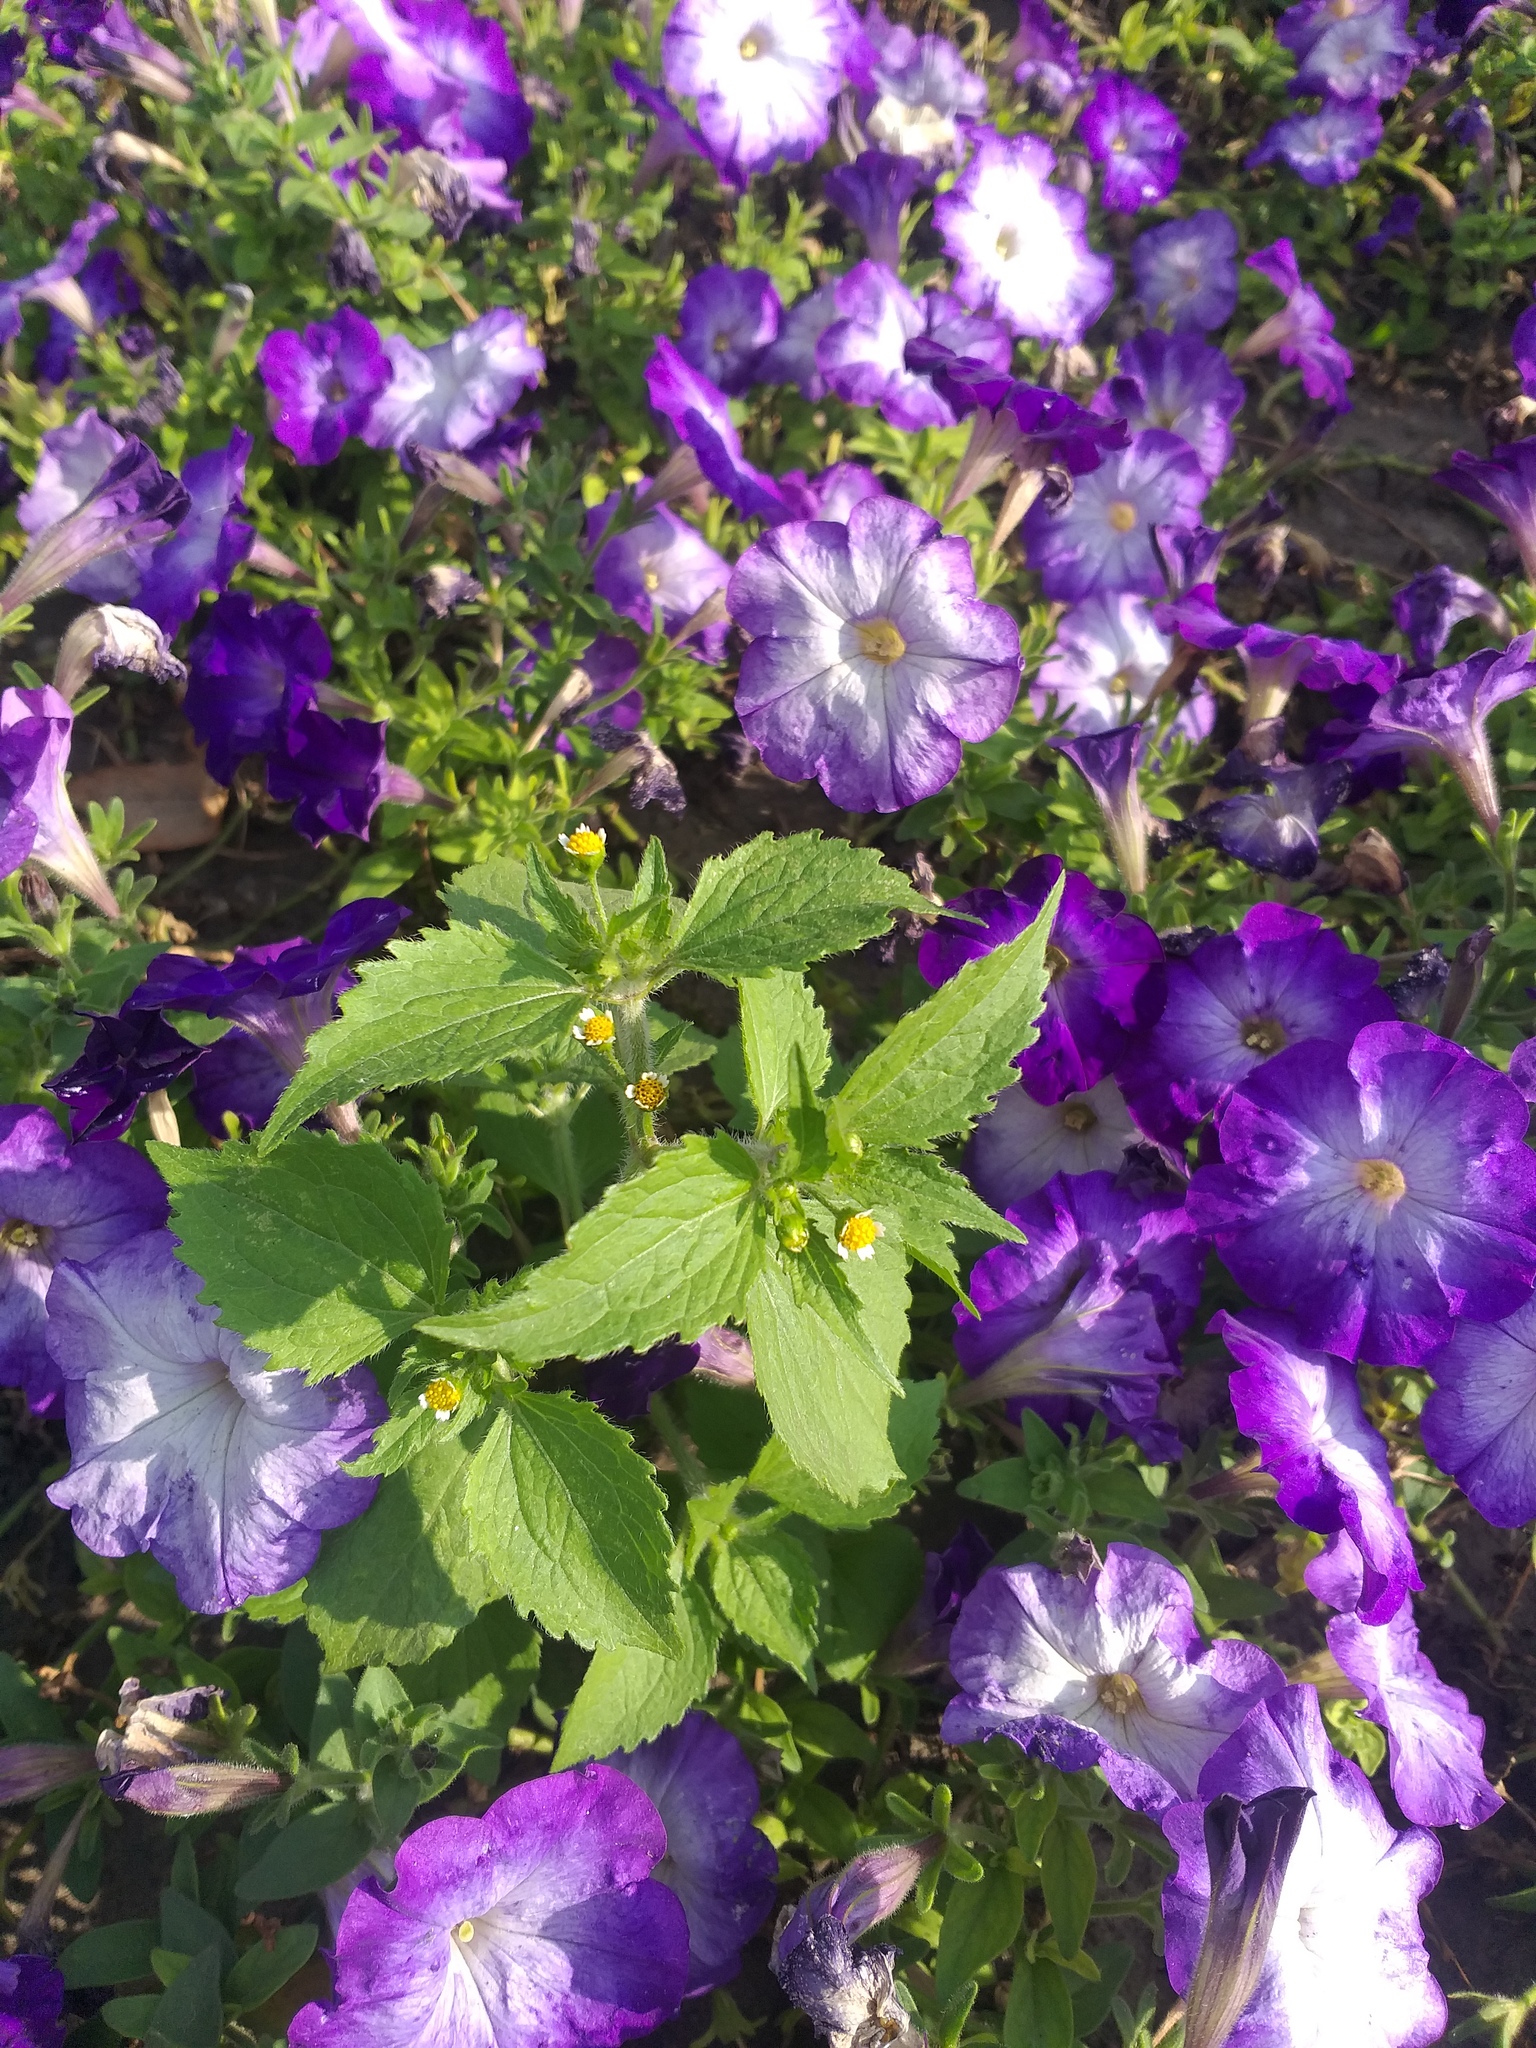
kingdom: Plantae
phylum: Tracheophyta
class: Magnoliopsida
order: Asterales
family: Asteraceae
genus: Galinsoga
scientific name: Galinsoga quadriradiata
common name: Shaggy soldier
